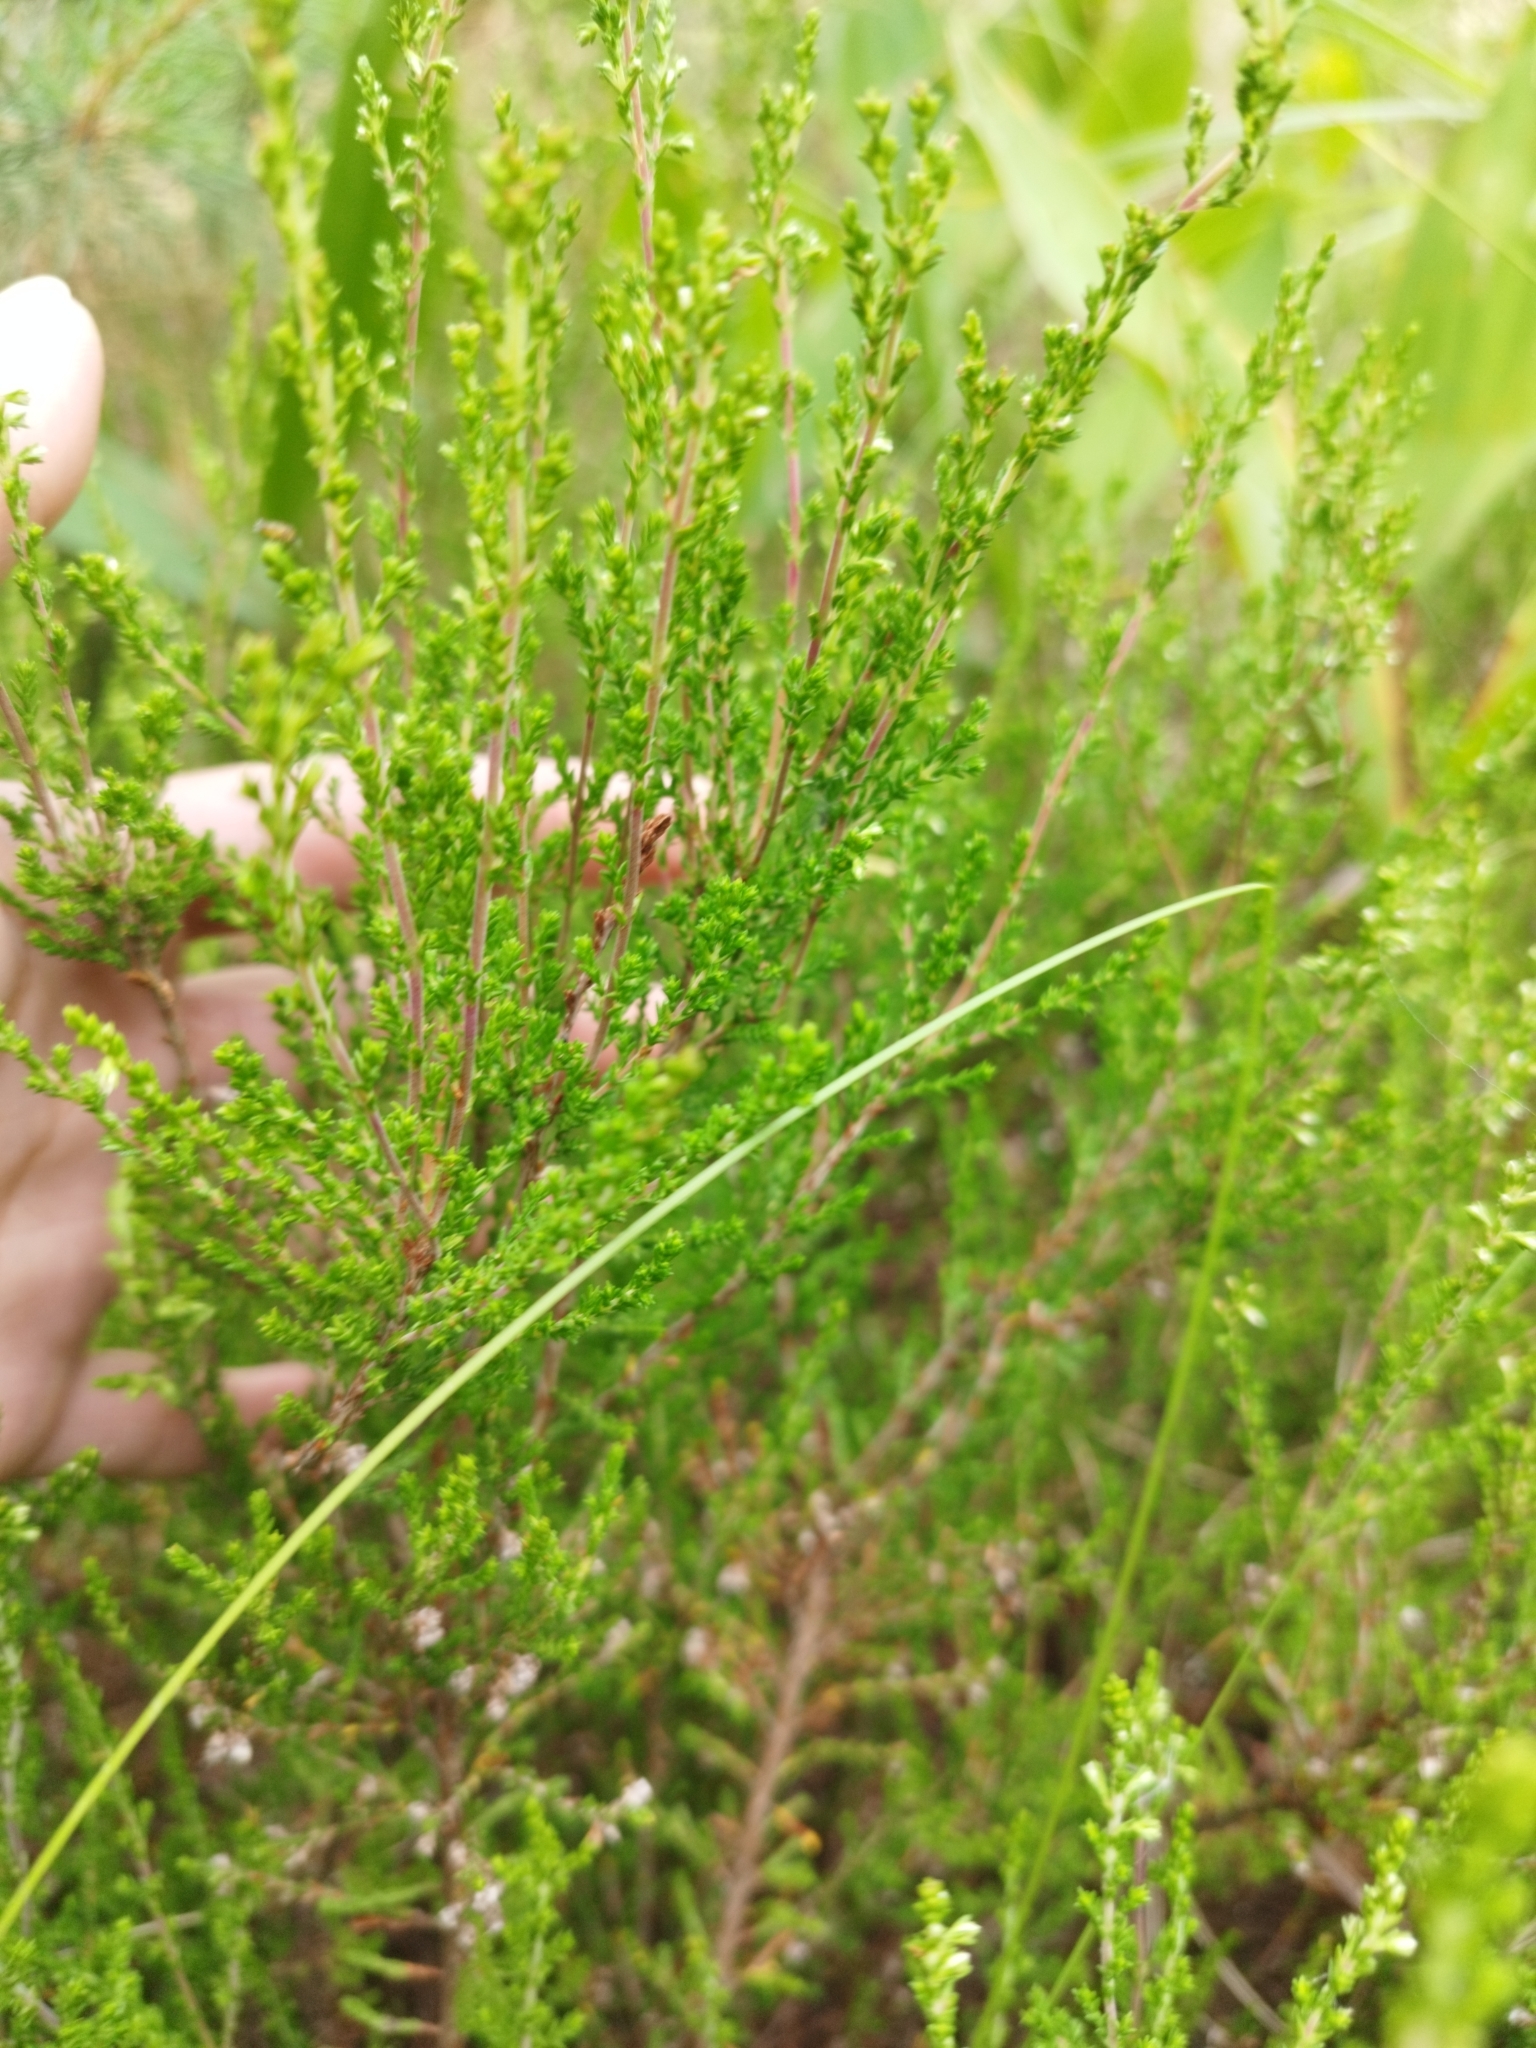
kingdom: Plantae
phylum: Tracheophyta
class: Magnoliopsida
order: Ericales
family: Ericaceae
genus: Calluna
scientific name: Calluna vulgaris
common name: Heather
